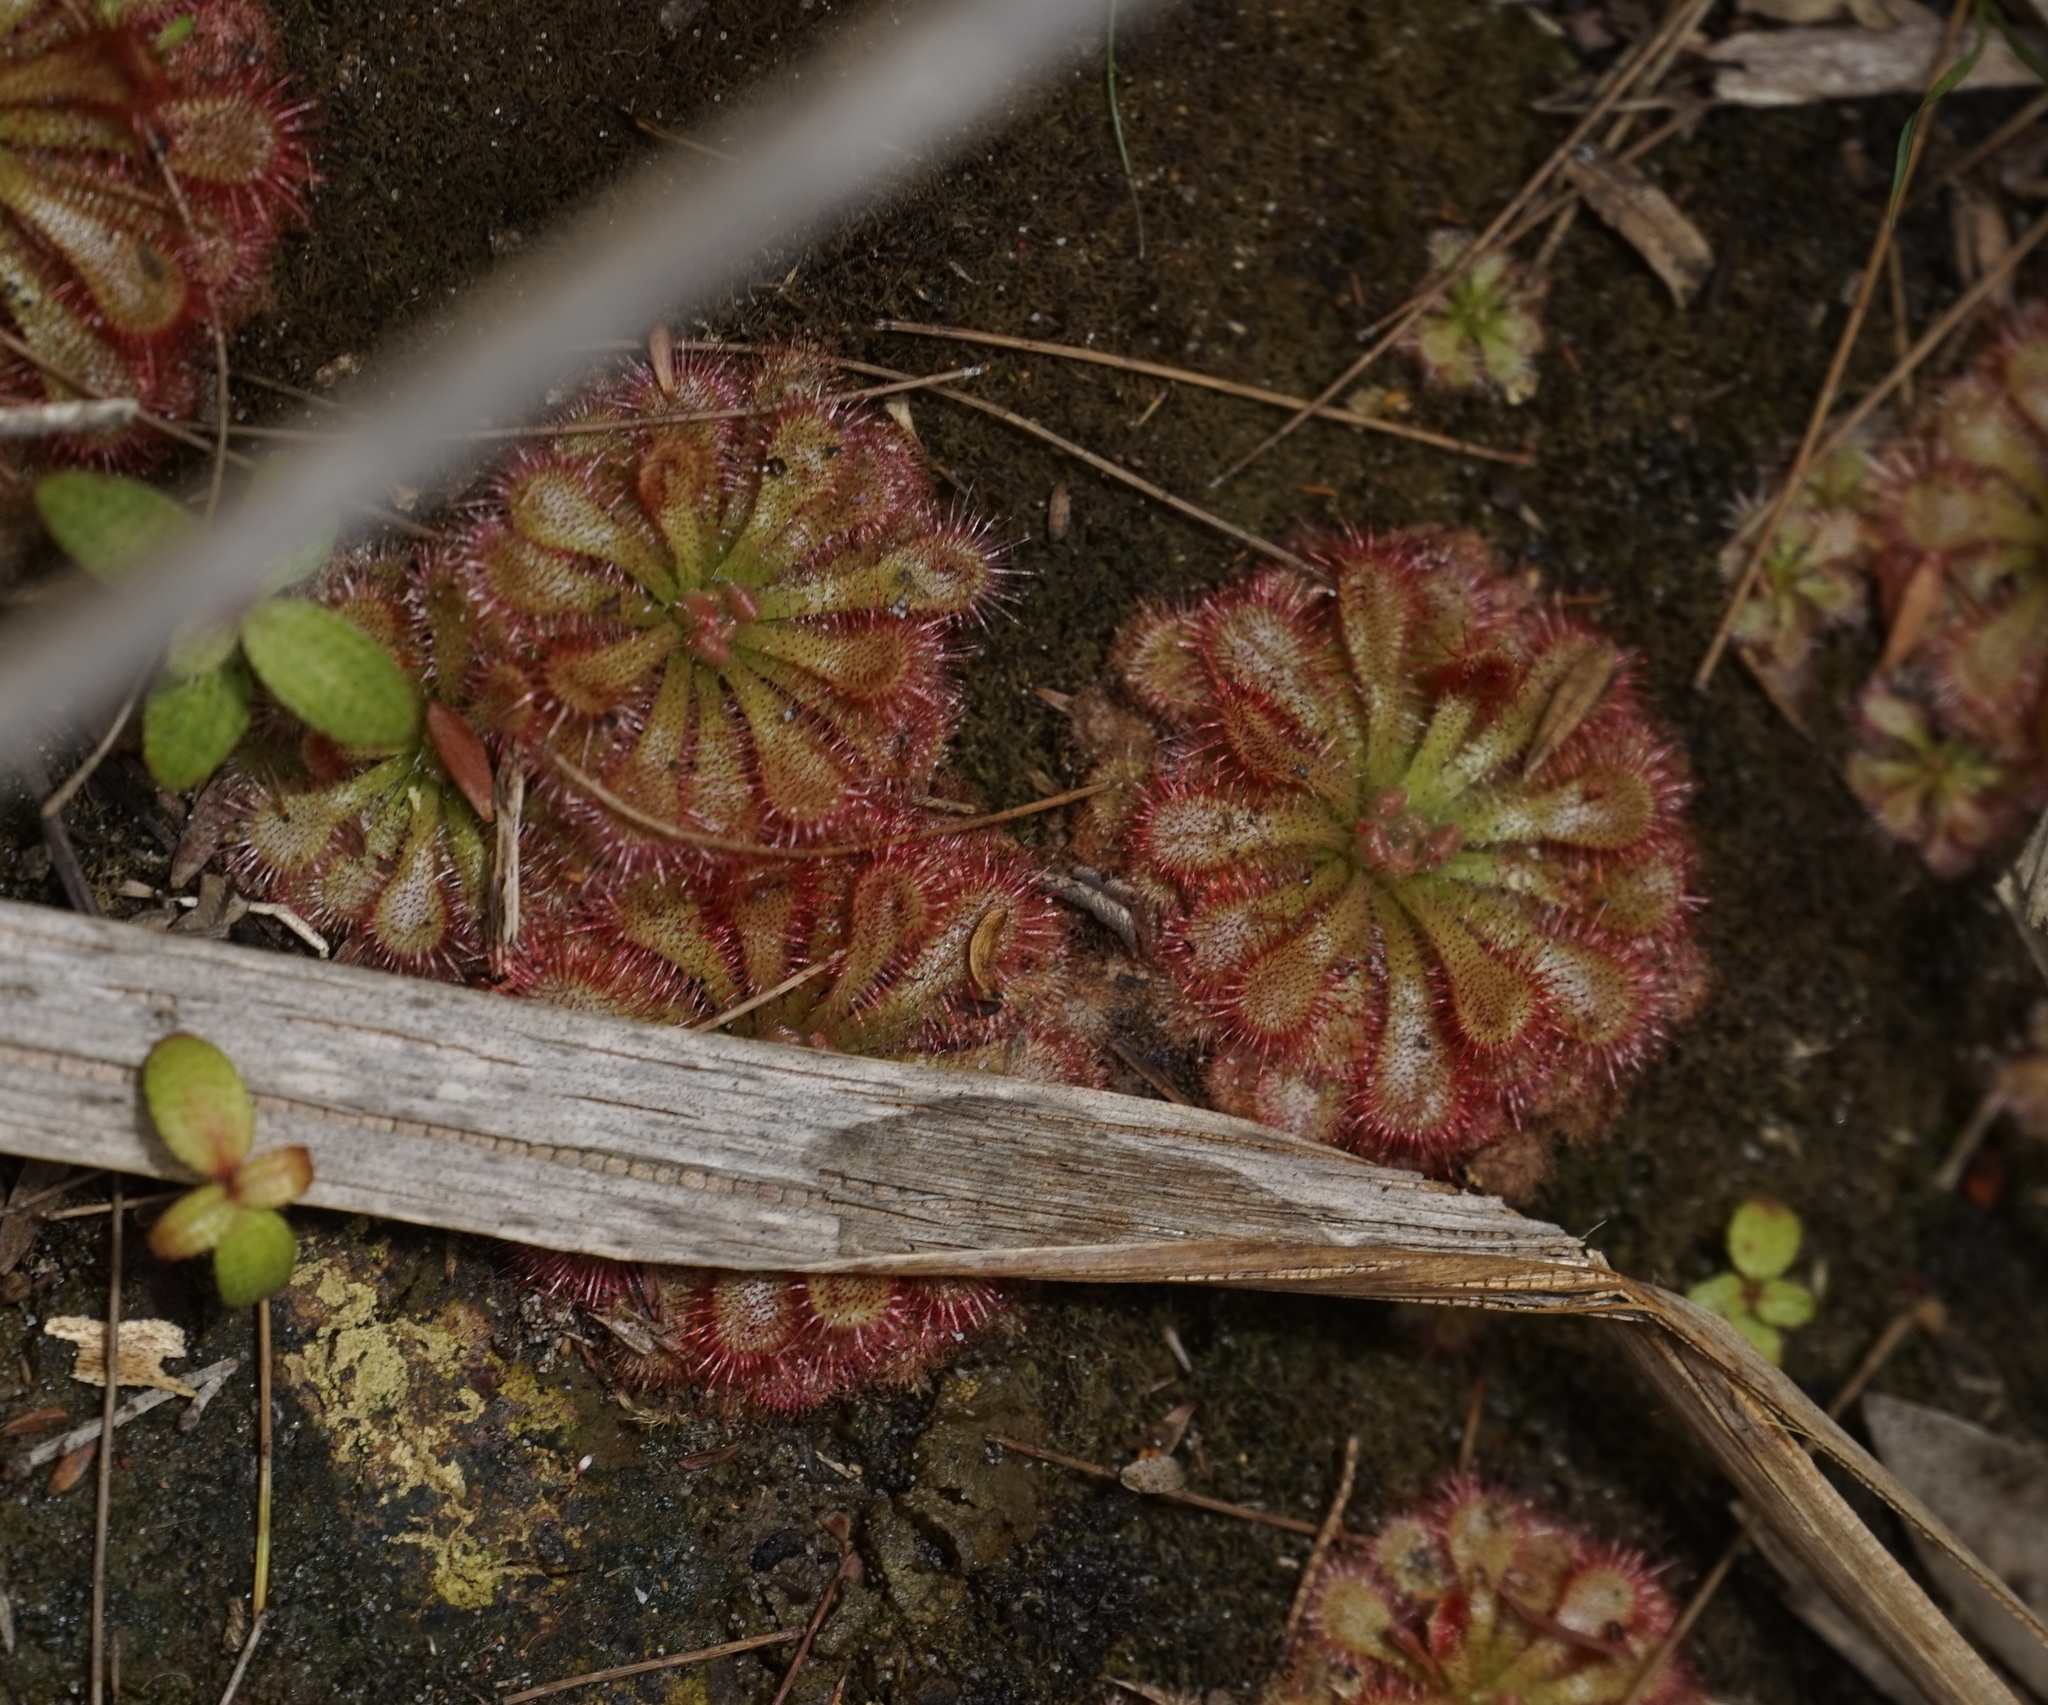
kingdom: Plantae
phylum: Tracheophyta
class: Magnoliopsida
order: Caryophyllales
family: Droseraceae
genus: Drosera
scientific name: Drosera spatulata
